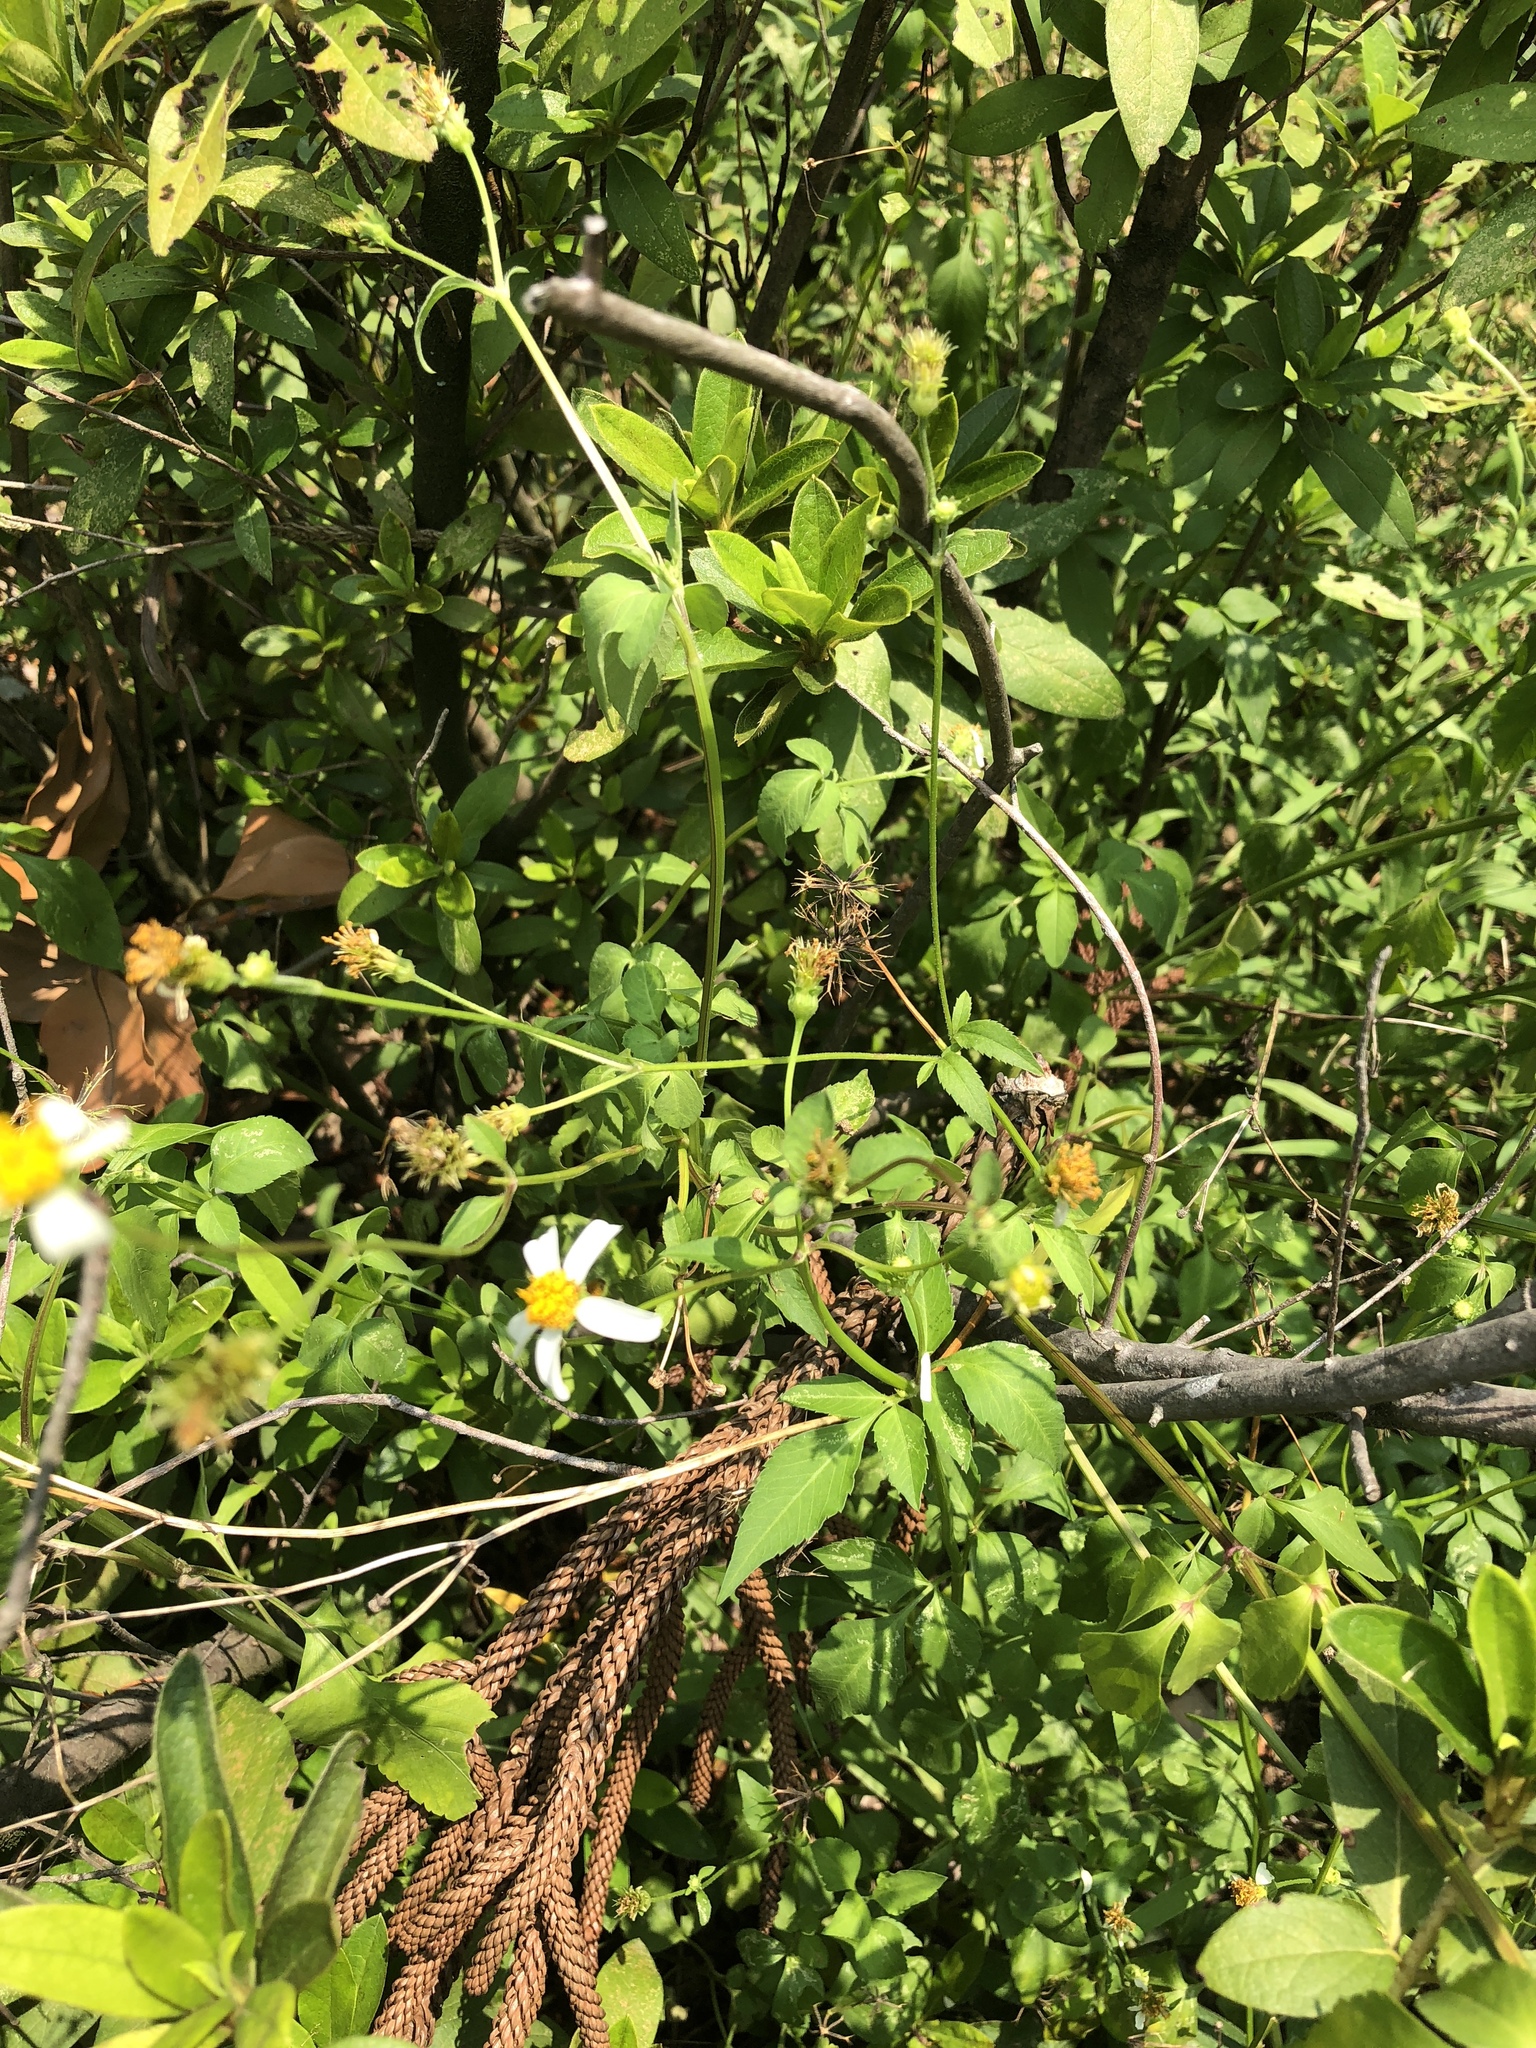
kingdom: Plantae
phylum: Tracheophyta
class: Magnoliopsida
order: Asterales
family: Asteraceae
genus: Bidens
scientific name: Bidens alba
